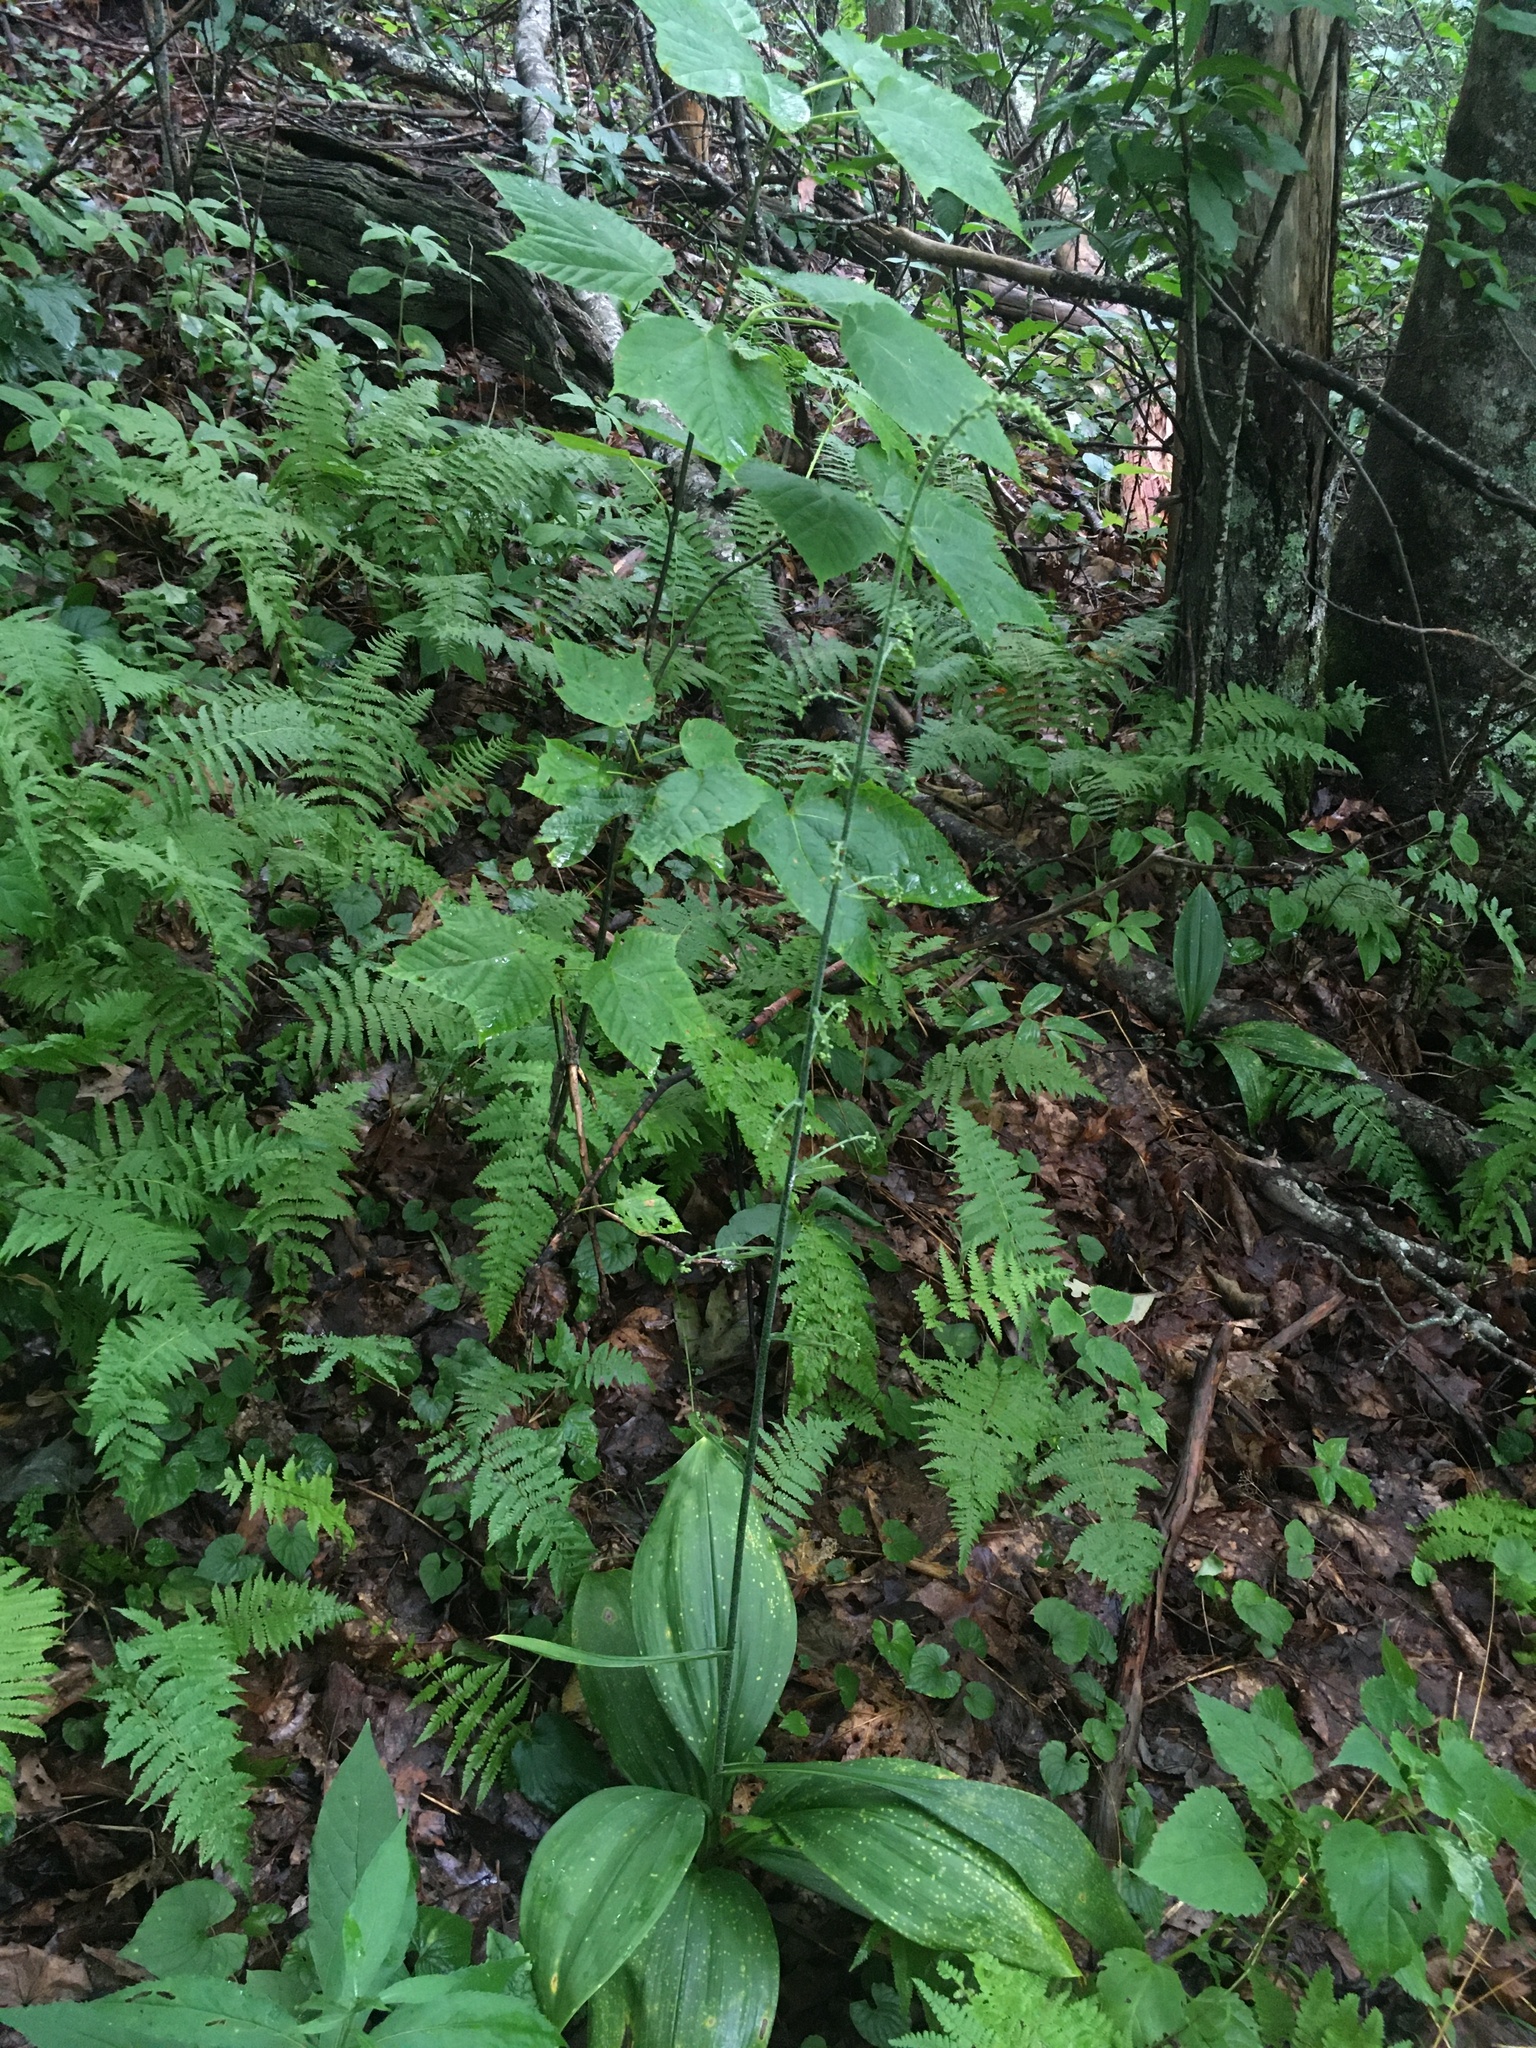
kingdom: Plantae
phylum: Tracheophyta
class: Liliopsida
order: Liliales
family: Melanthiaceae
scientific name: Melanthiaceae
